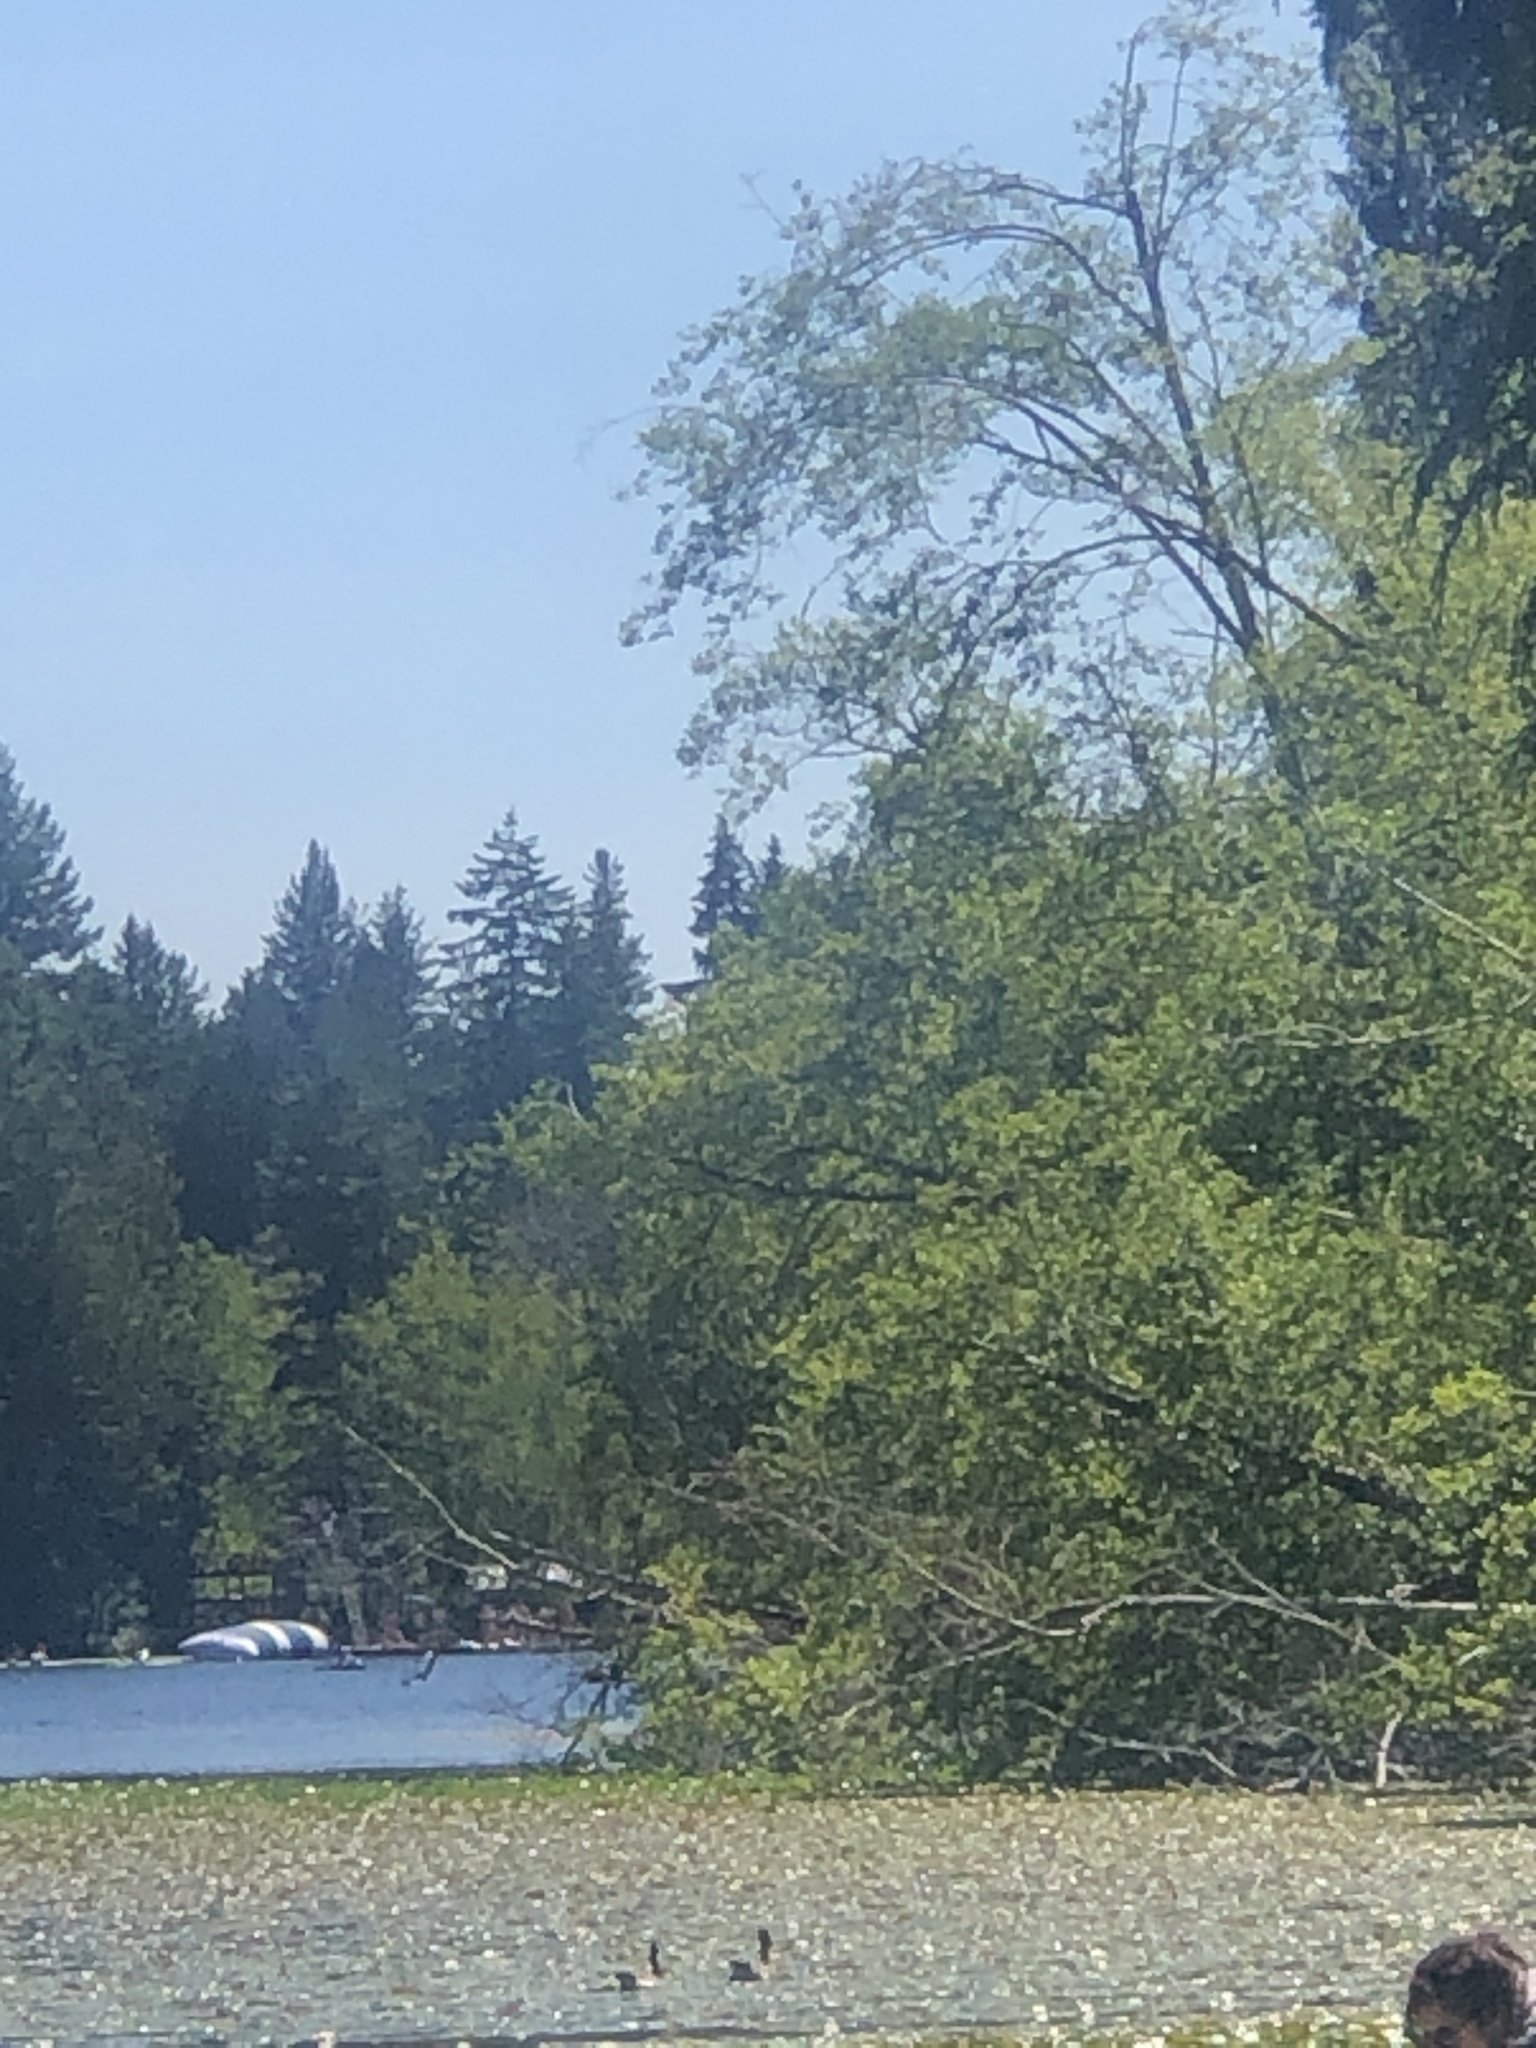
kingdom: Animalia
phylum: Chordata
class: Aves
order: Anseriformes
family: Anatidae
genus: Branta
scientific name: Branta canadensis
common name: Canada goose
